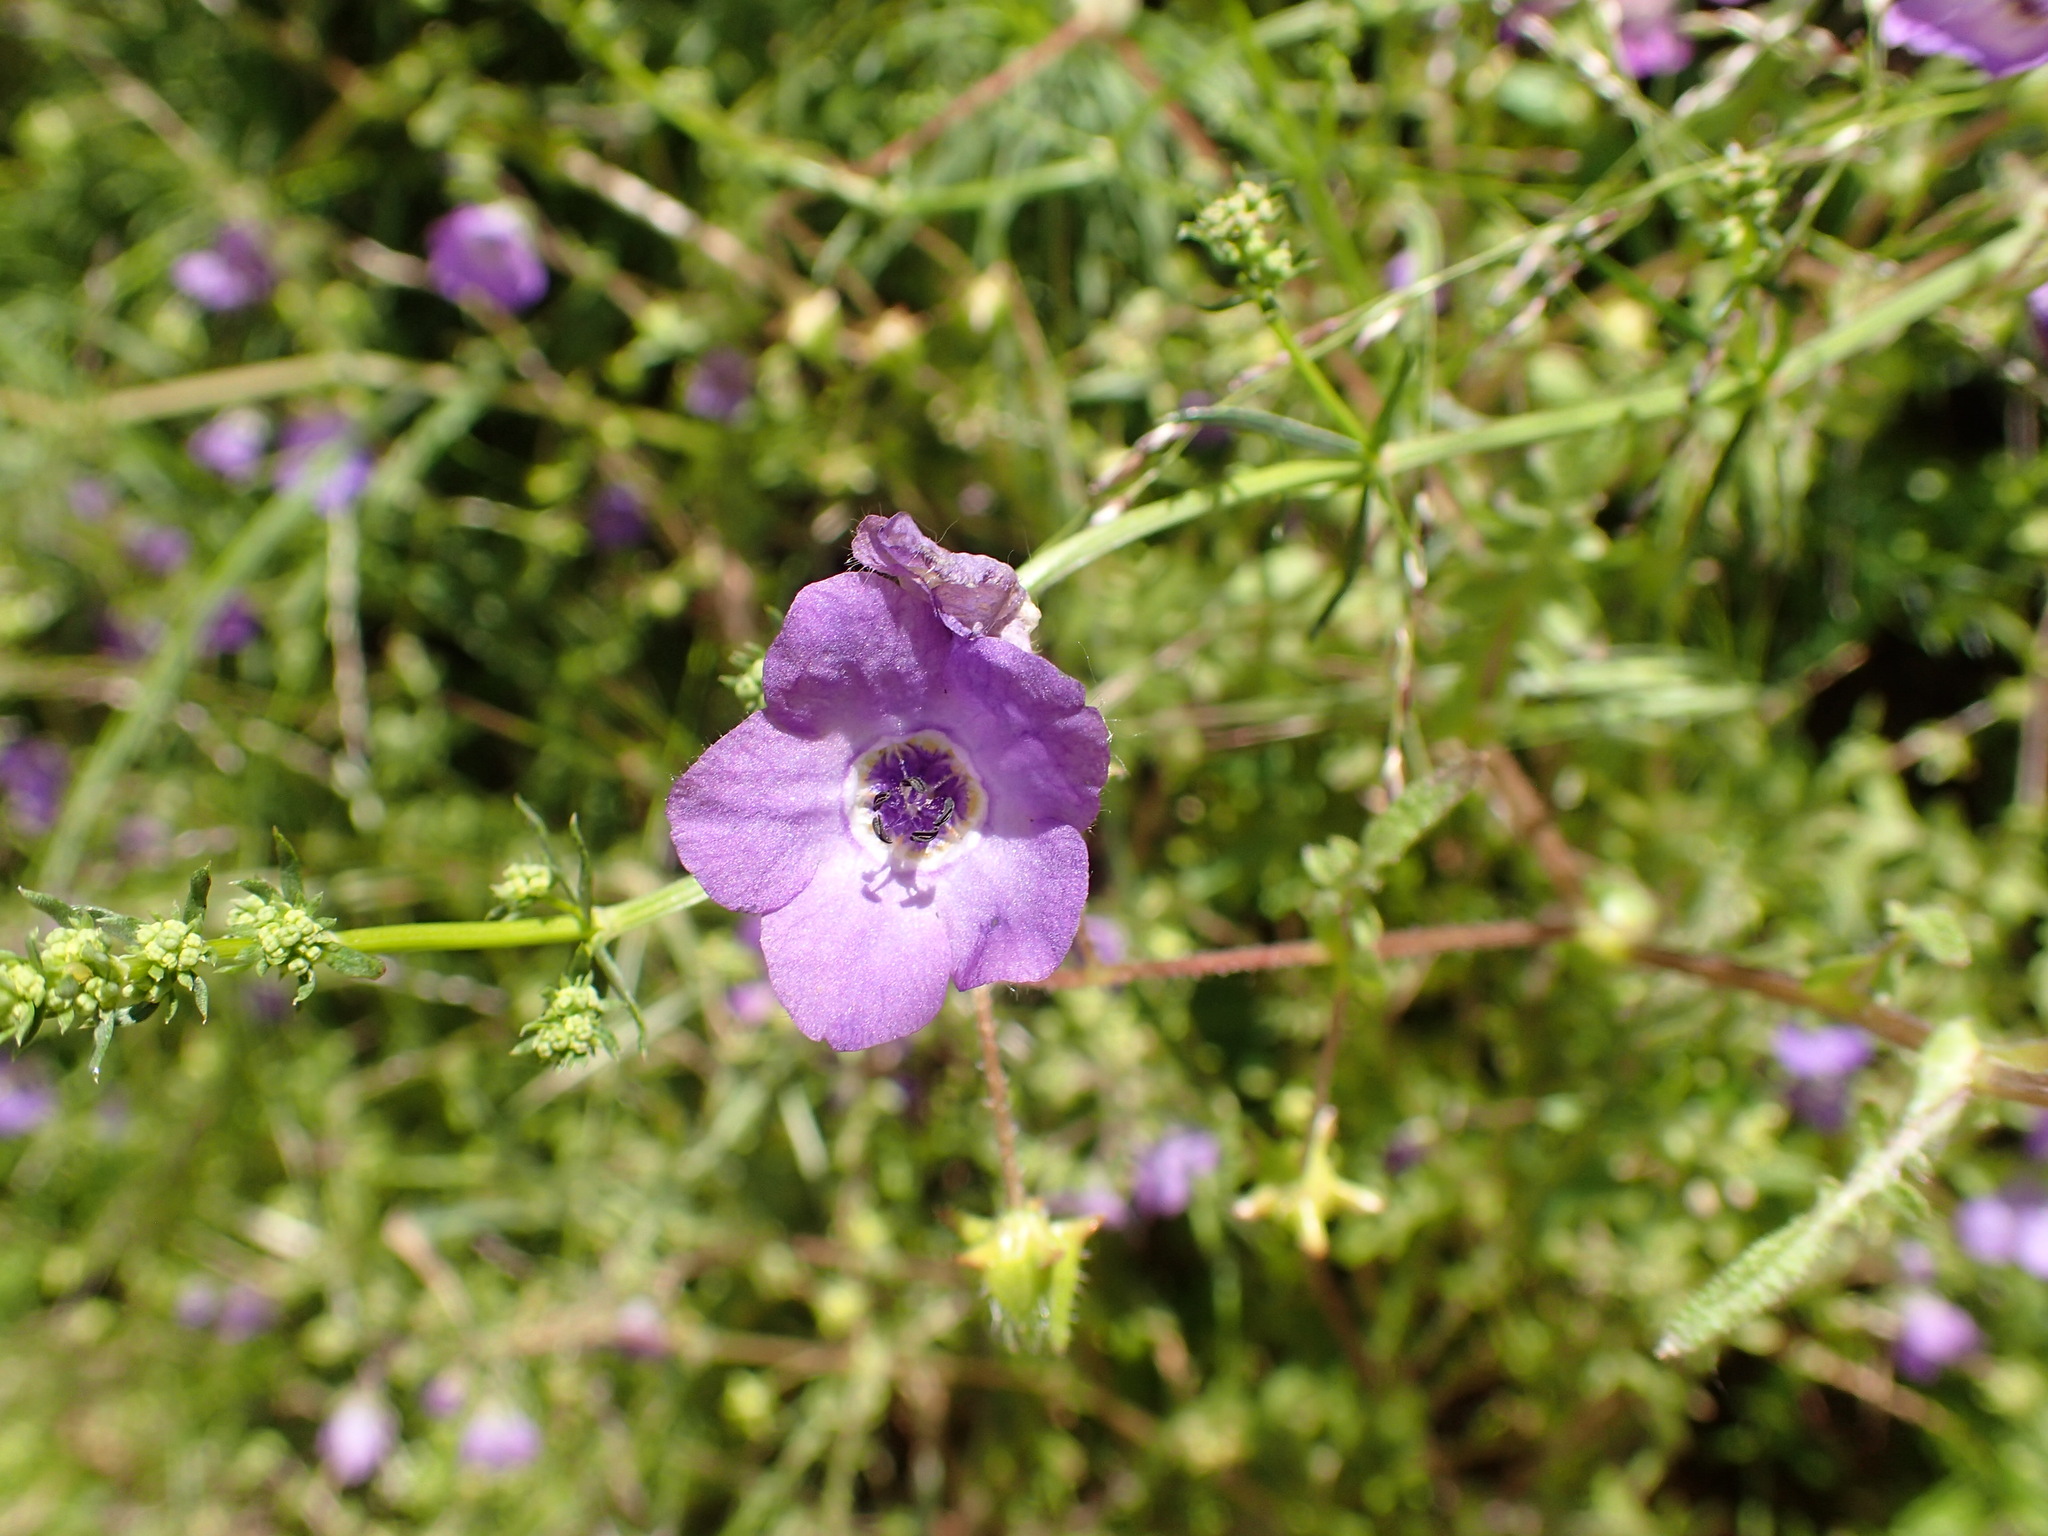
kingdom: Plantae
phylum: Tracheophyta
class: Magnoliopsida
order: Boraginales
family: Hydrophyllaceae
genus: Pholistoma
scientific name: Pholistoma auritum
